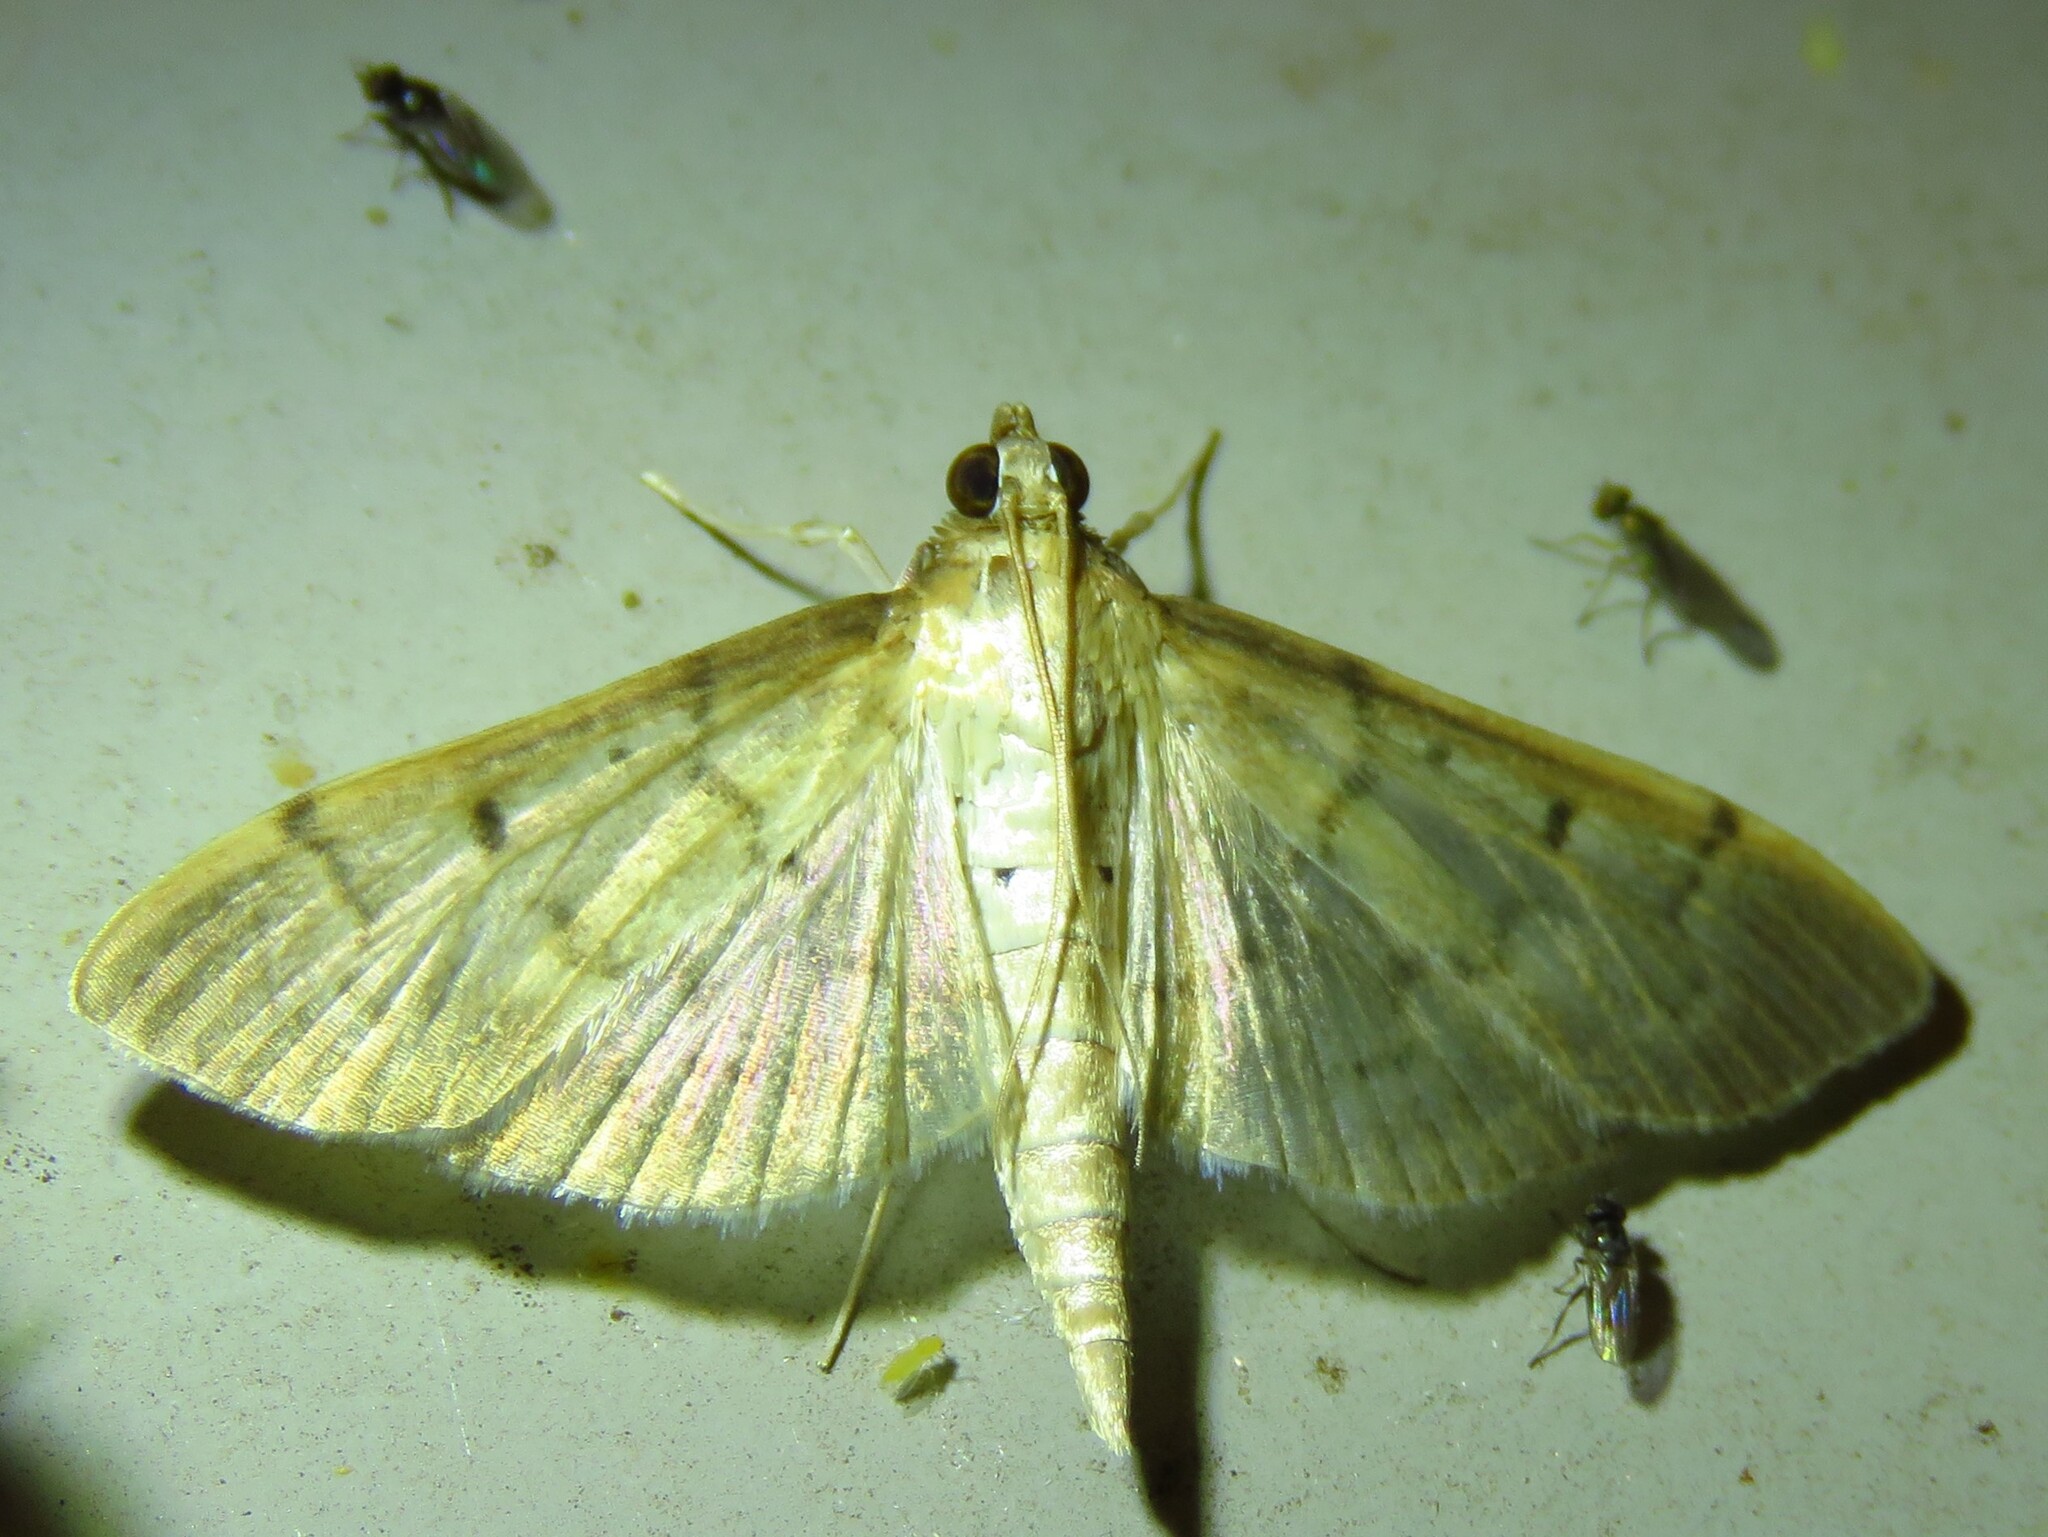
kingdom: Animalia
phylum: Arthropoda
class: Insecta
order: Lepidoptera
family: Crambidae
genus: Herpetogramma
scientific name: Herpetogramma bipunctalis
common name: Southern beet webworm
